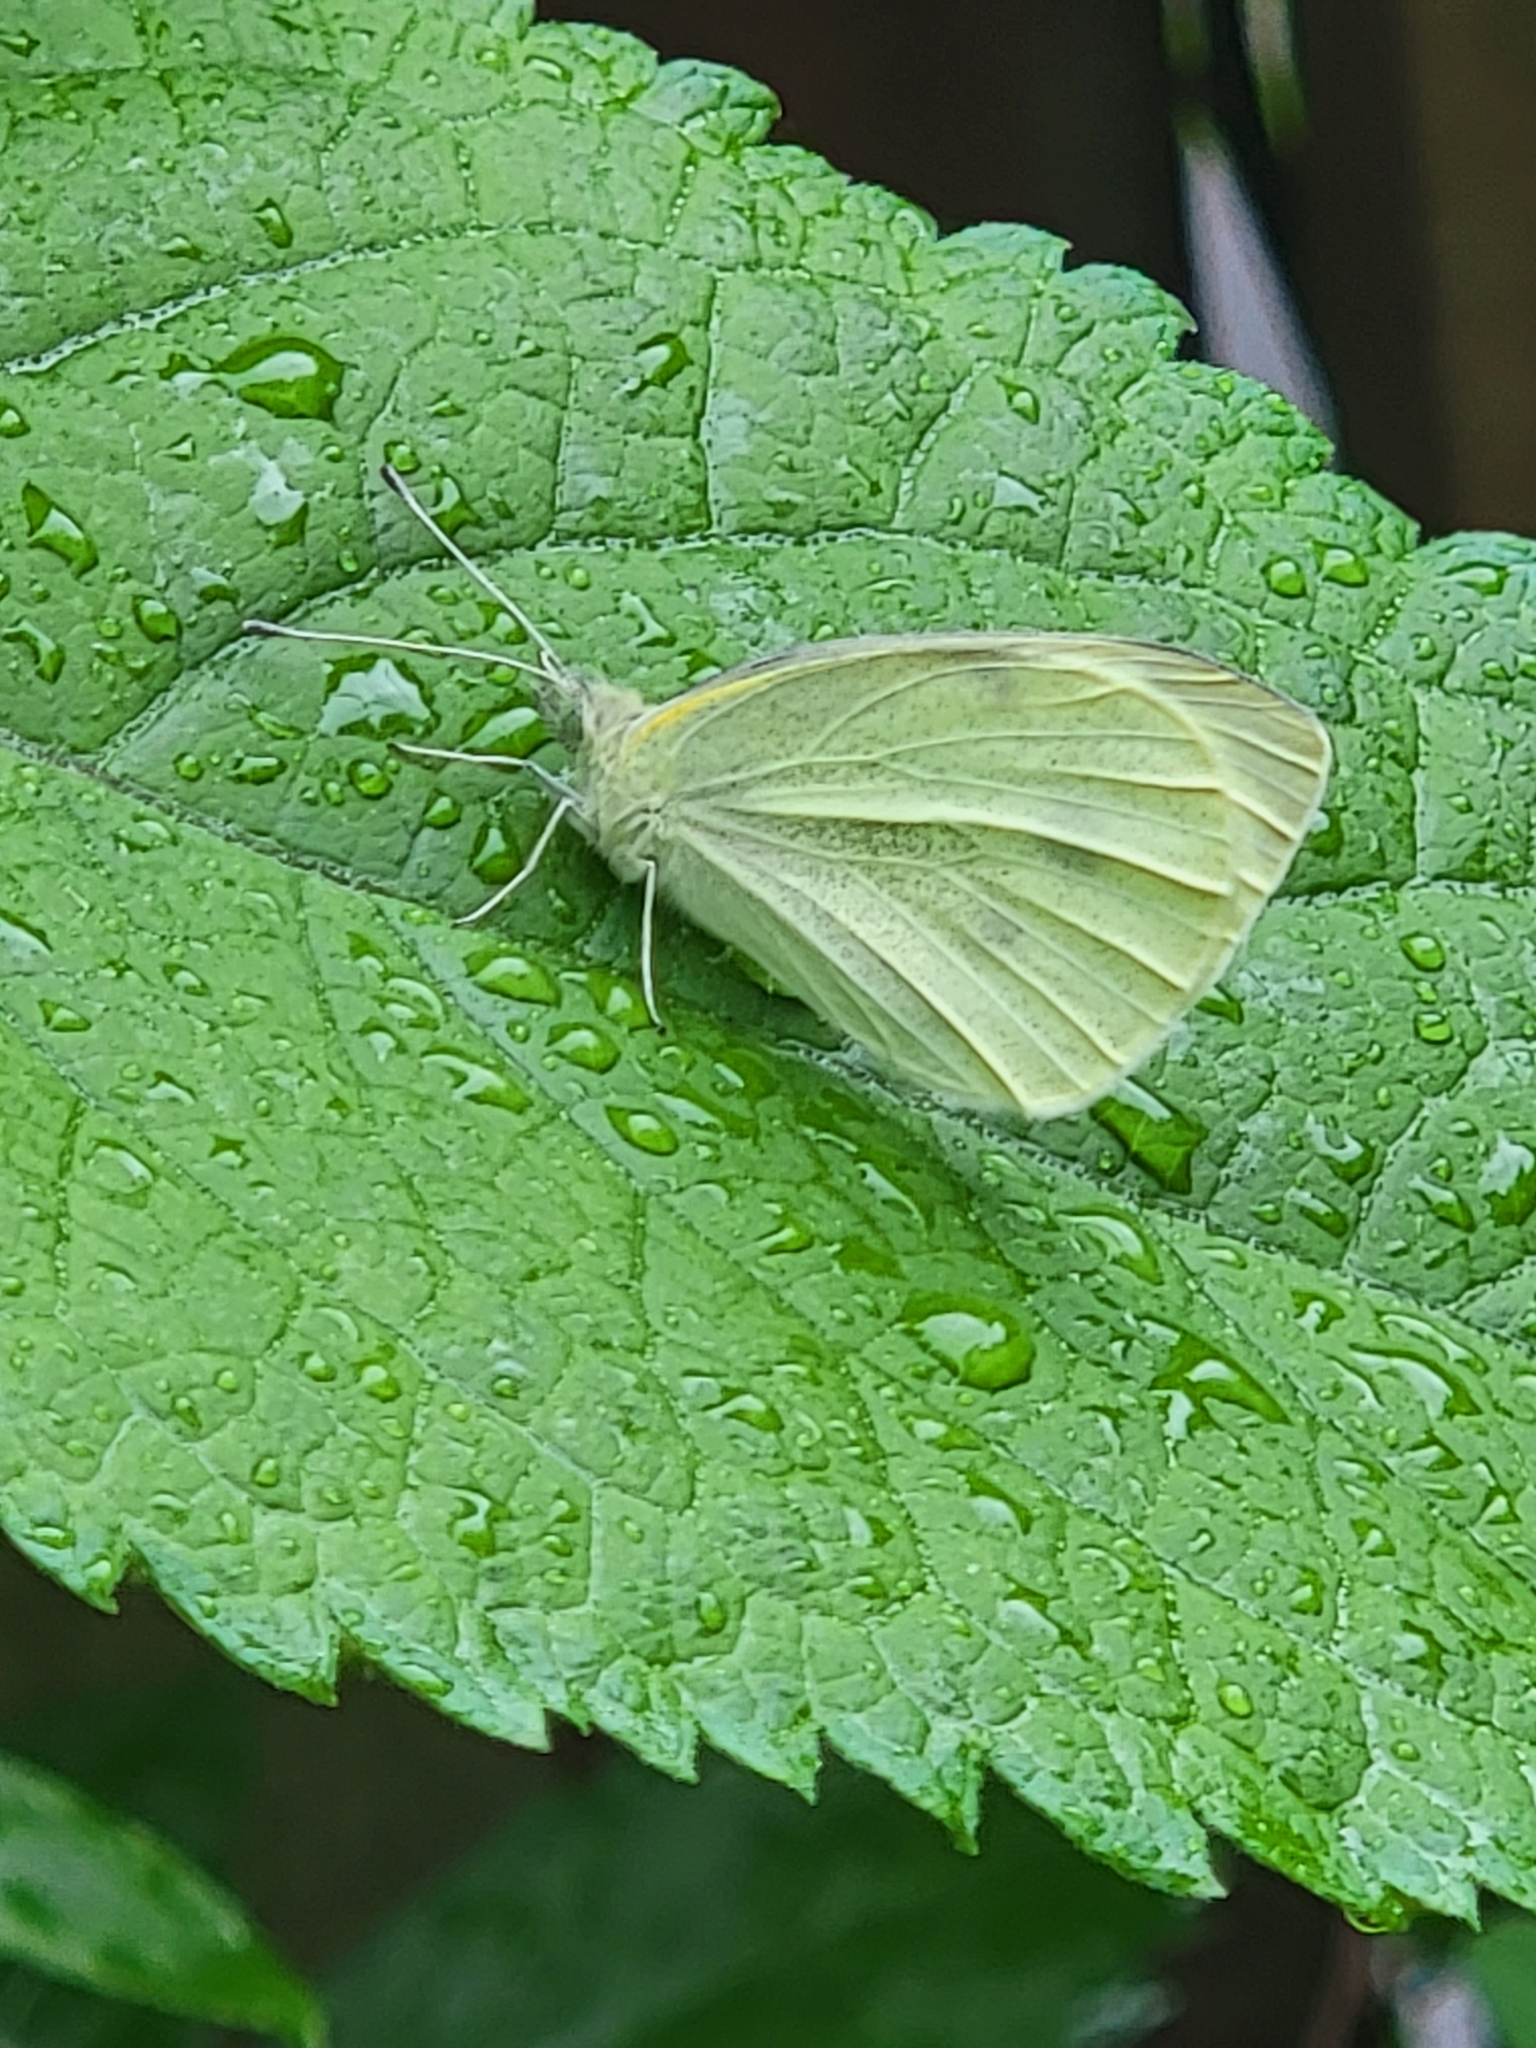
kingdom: Animalia
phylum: Arthropoda
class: Insecta
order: Lepidoptera
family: Pieridae
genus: Pieris
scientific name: Pieris rapae
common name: Small white
